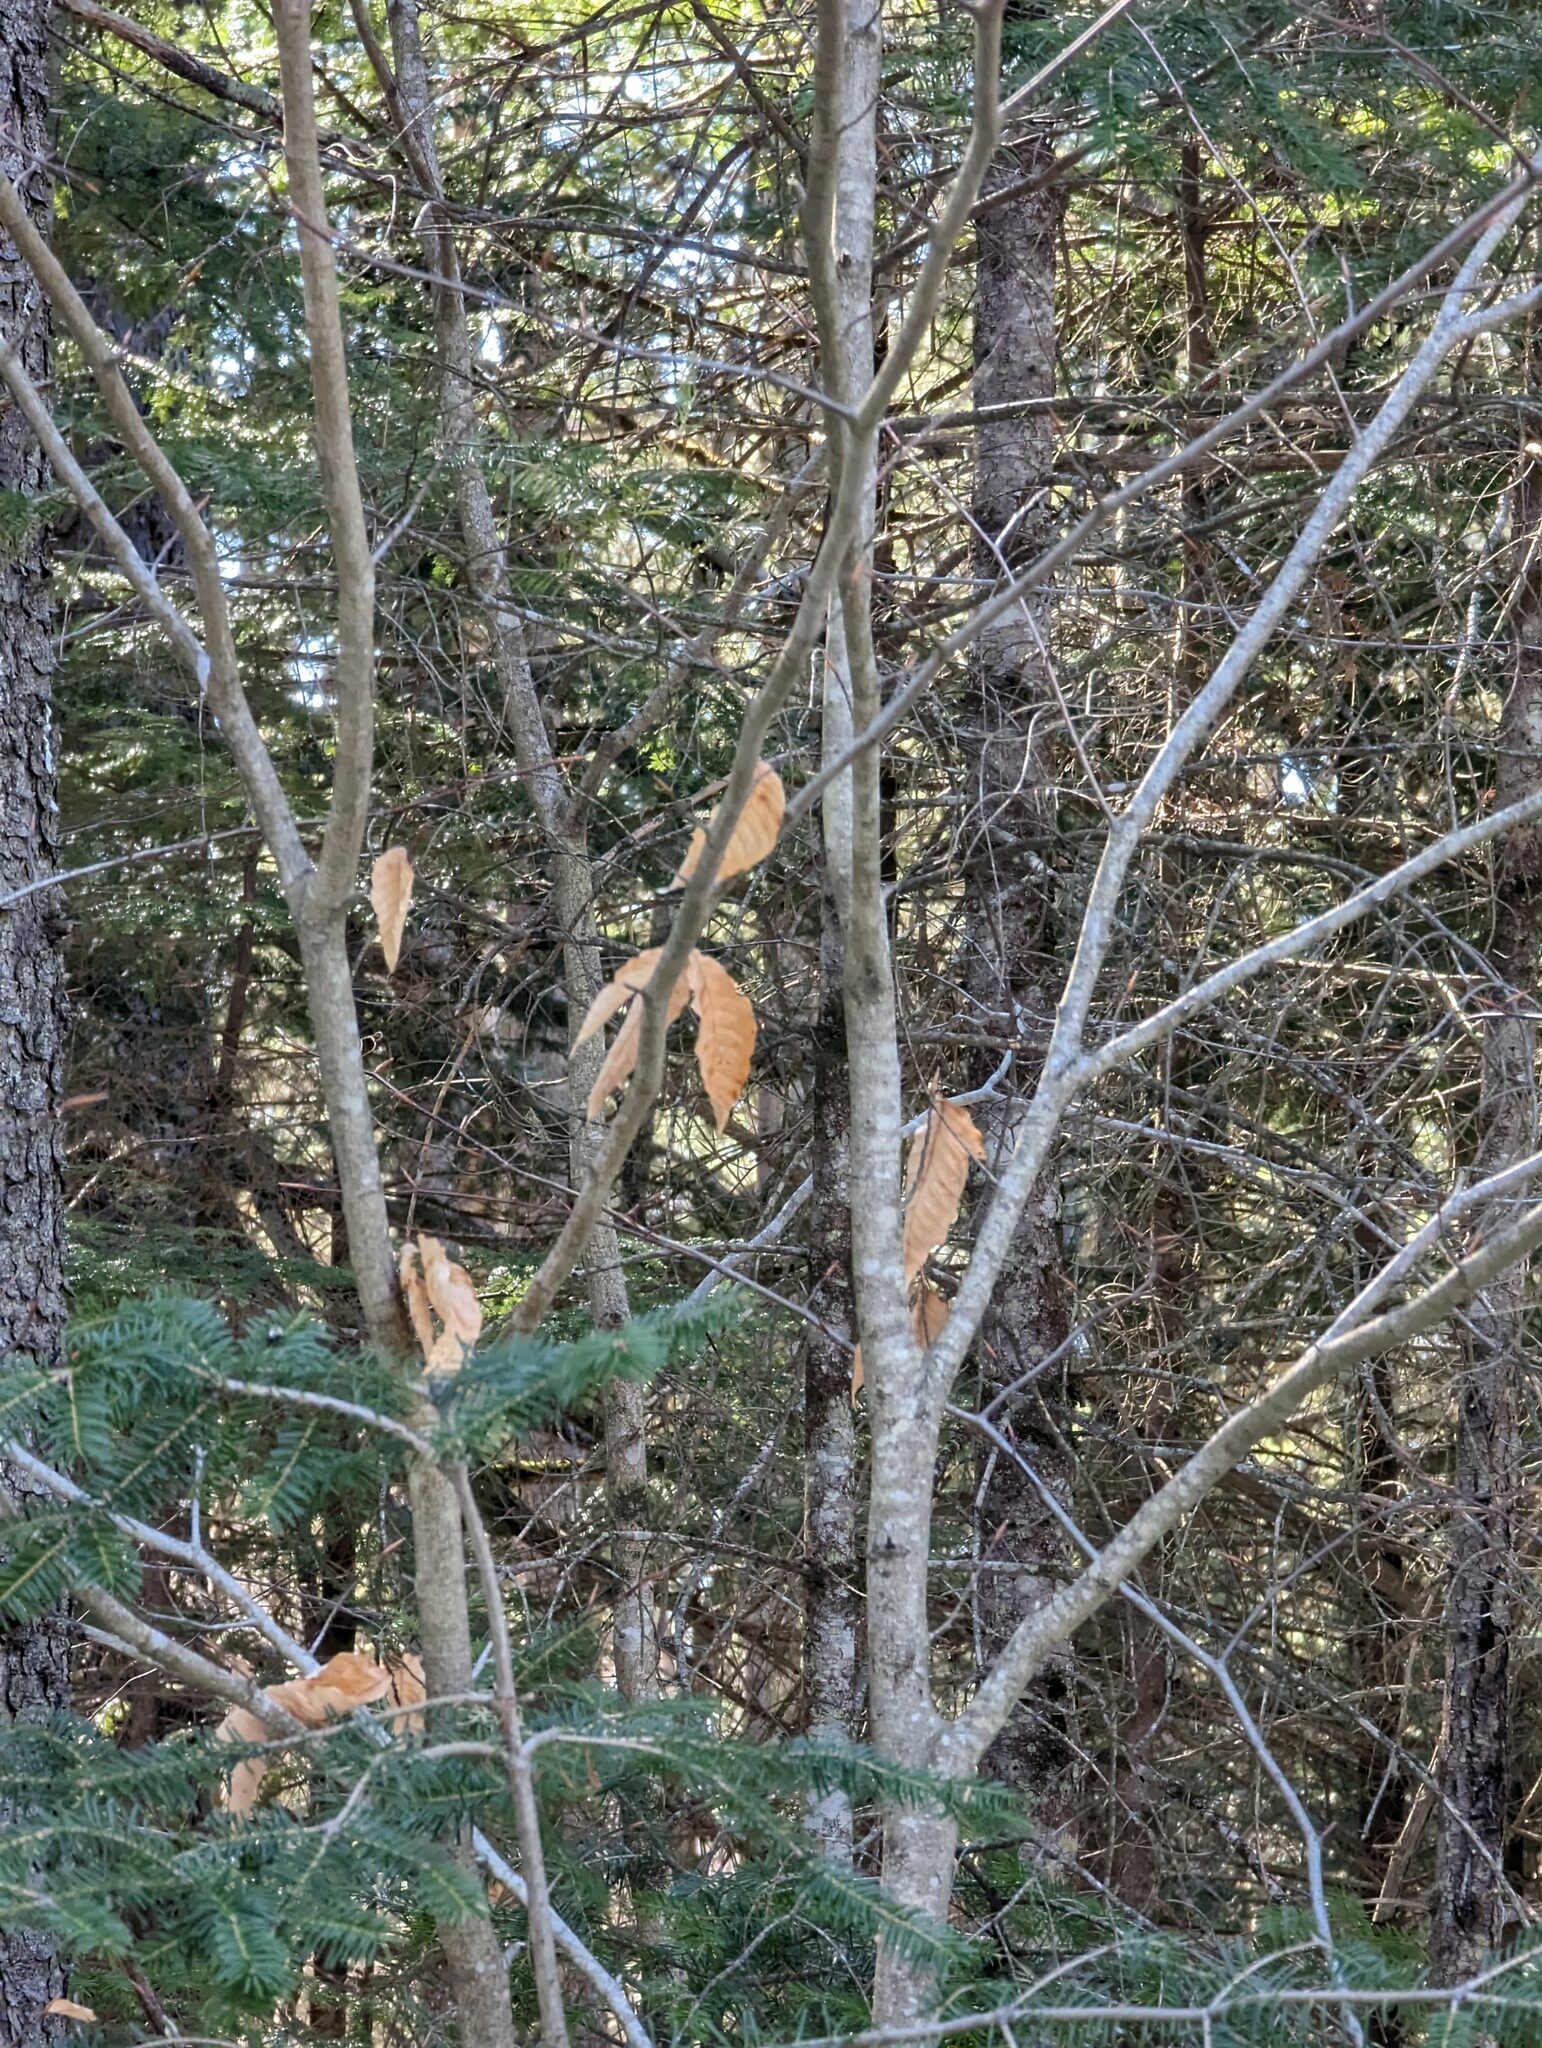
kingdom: Plantae
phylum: Tracheophyta
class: Magnoliopsida
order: Fagales
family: Fagaceae
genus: Fagus
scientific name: Fagus grandifolia
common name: American beech
